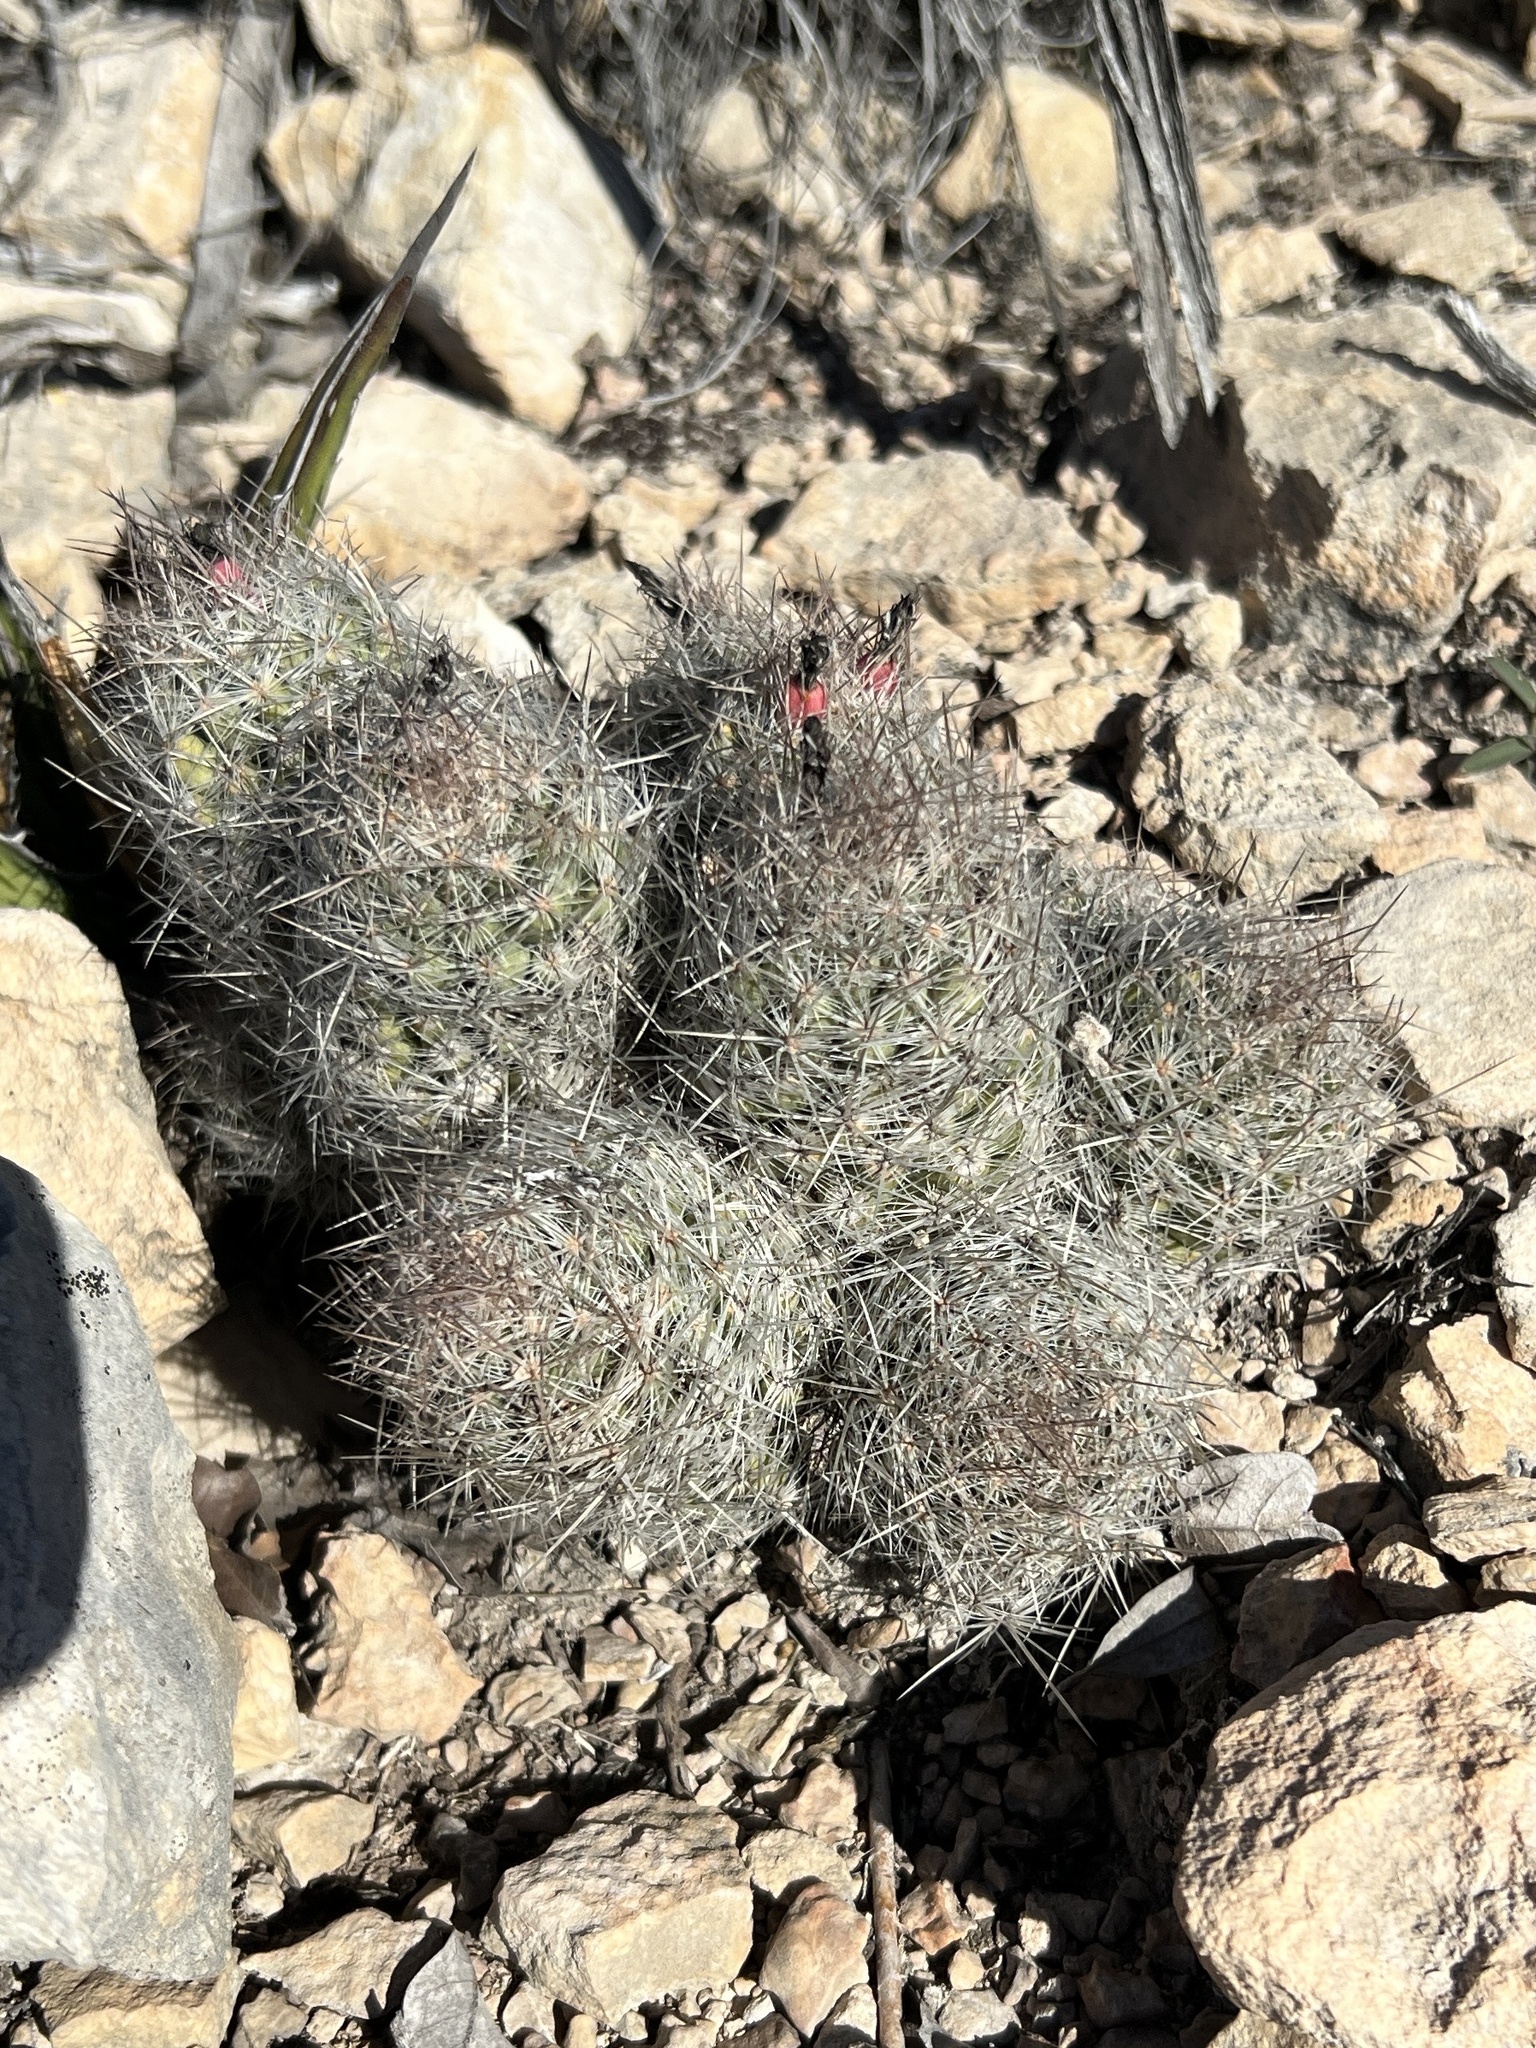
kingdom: Plantae
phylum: Tracheophyta
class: Magnoliopsida
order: Caryophyllales
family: Cactaceae
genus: Pelecyphora
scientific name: Pelecyphora tuberculosa
